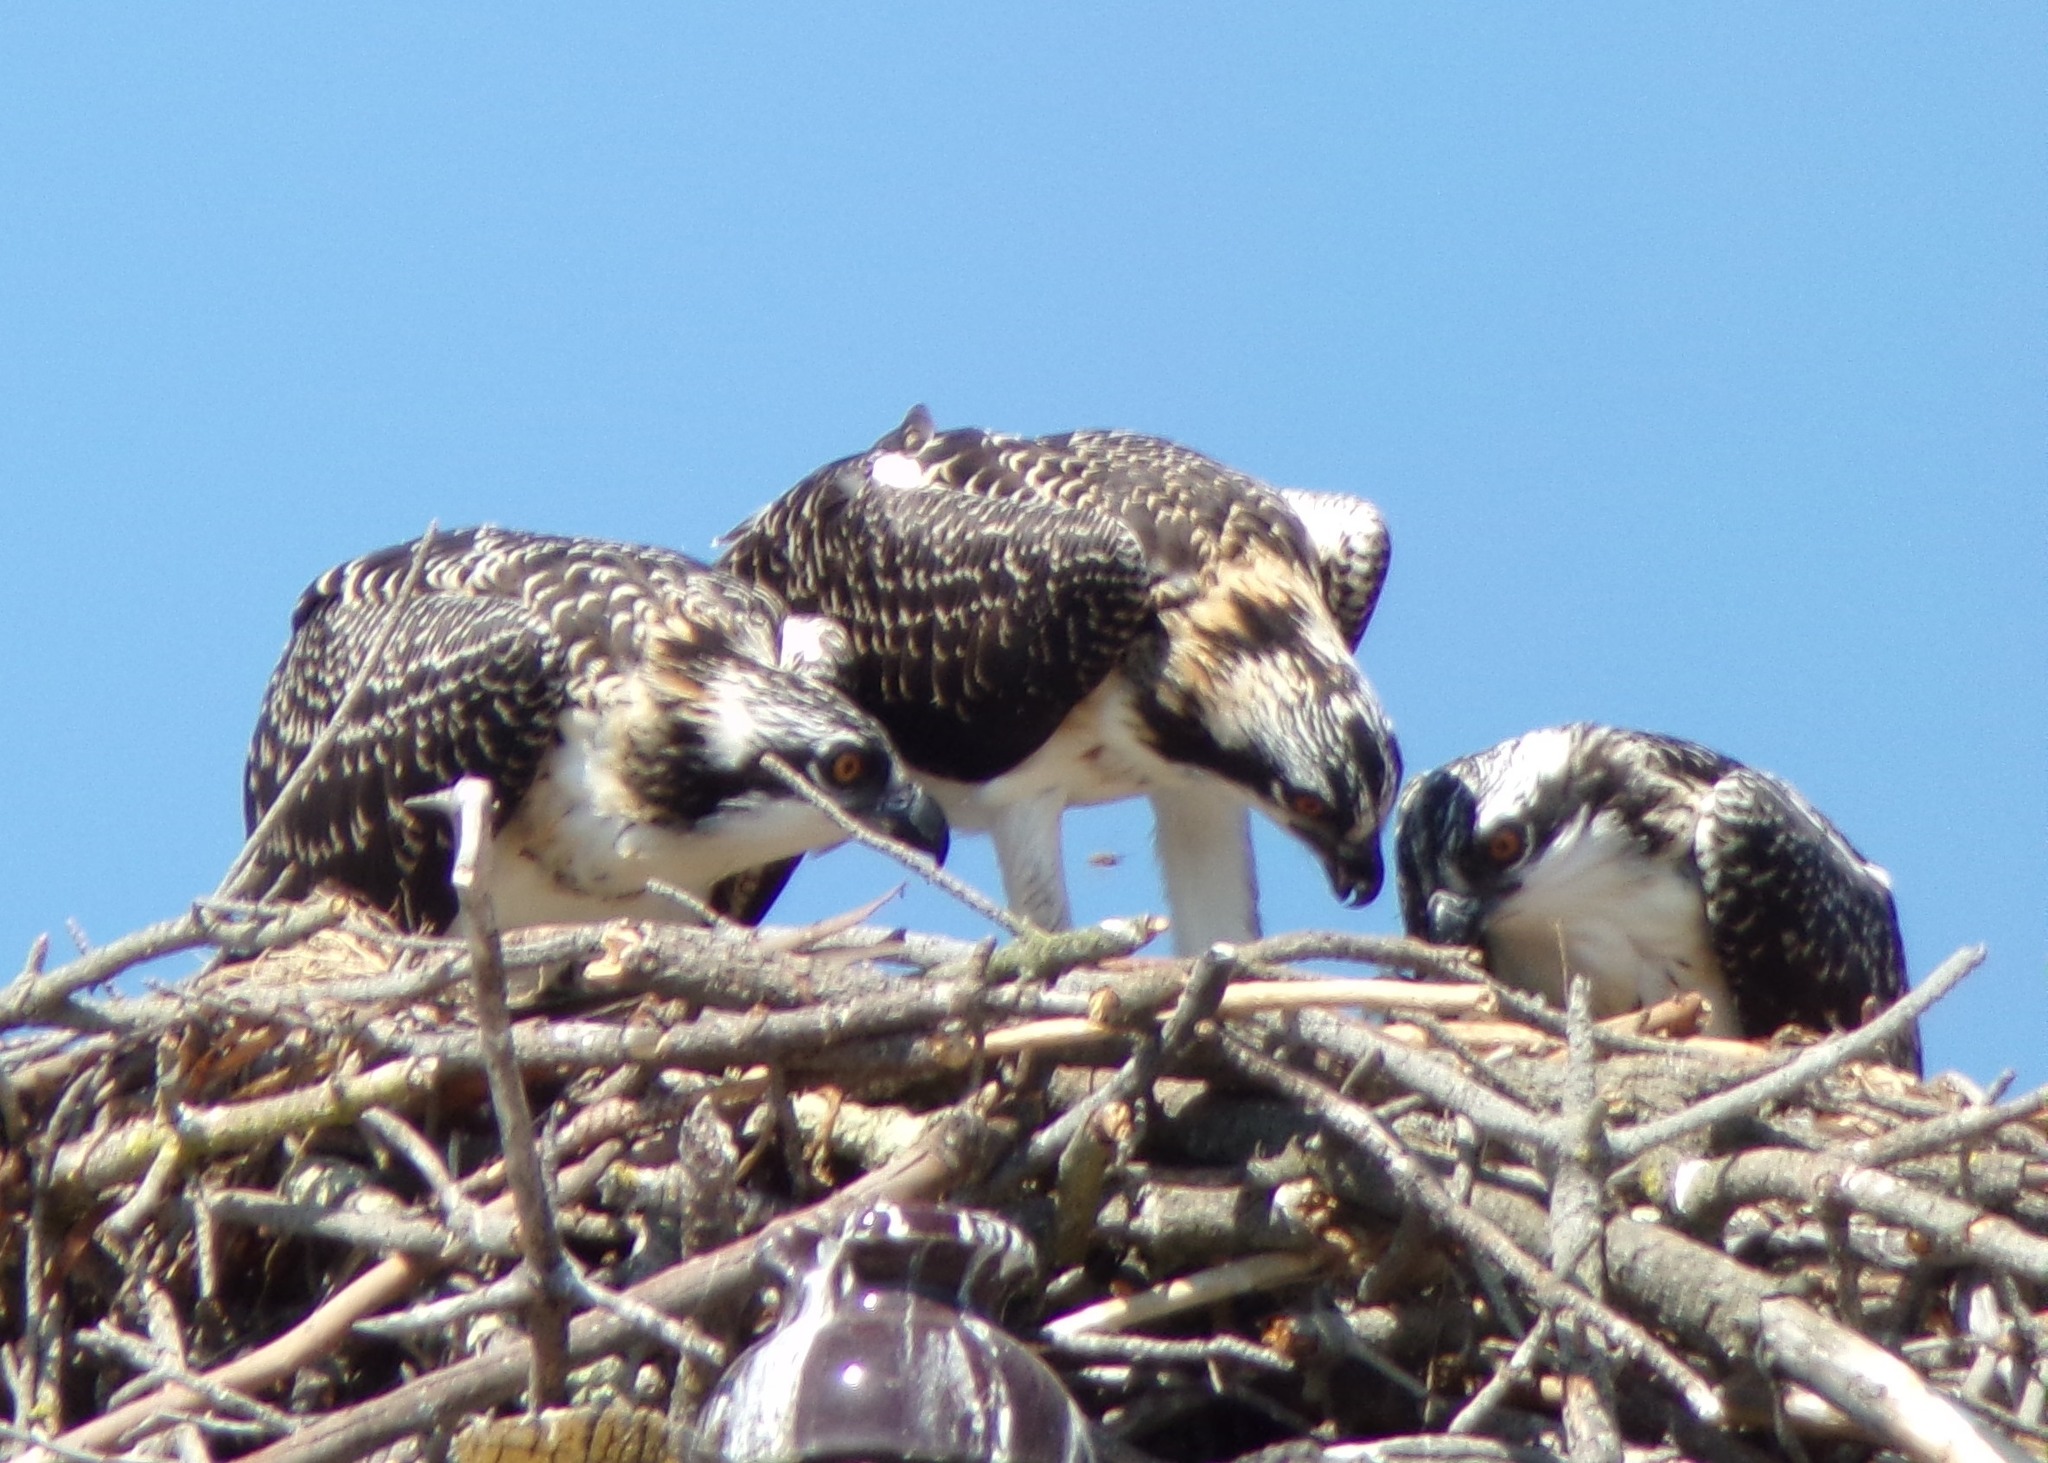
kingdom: Animalia
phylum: Chordata
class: Aves
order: Accipitriformes
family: Pandionidae
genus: Pandion
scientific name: Pandion haliaetus
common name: Osprey
